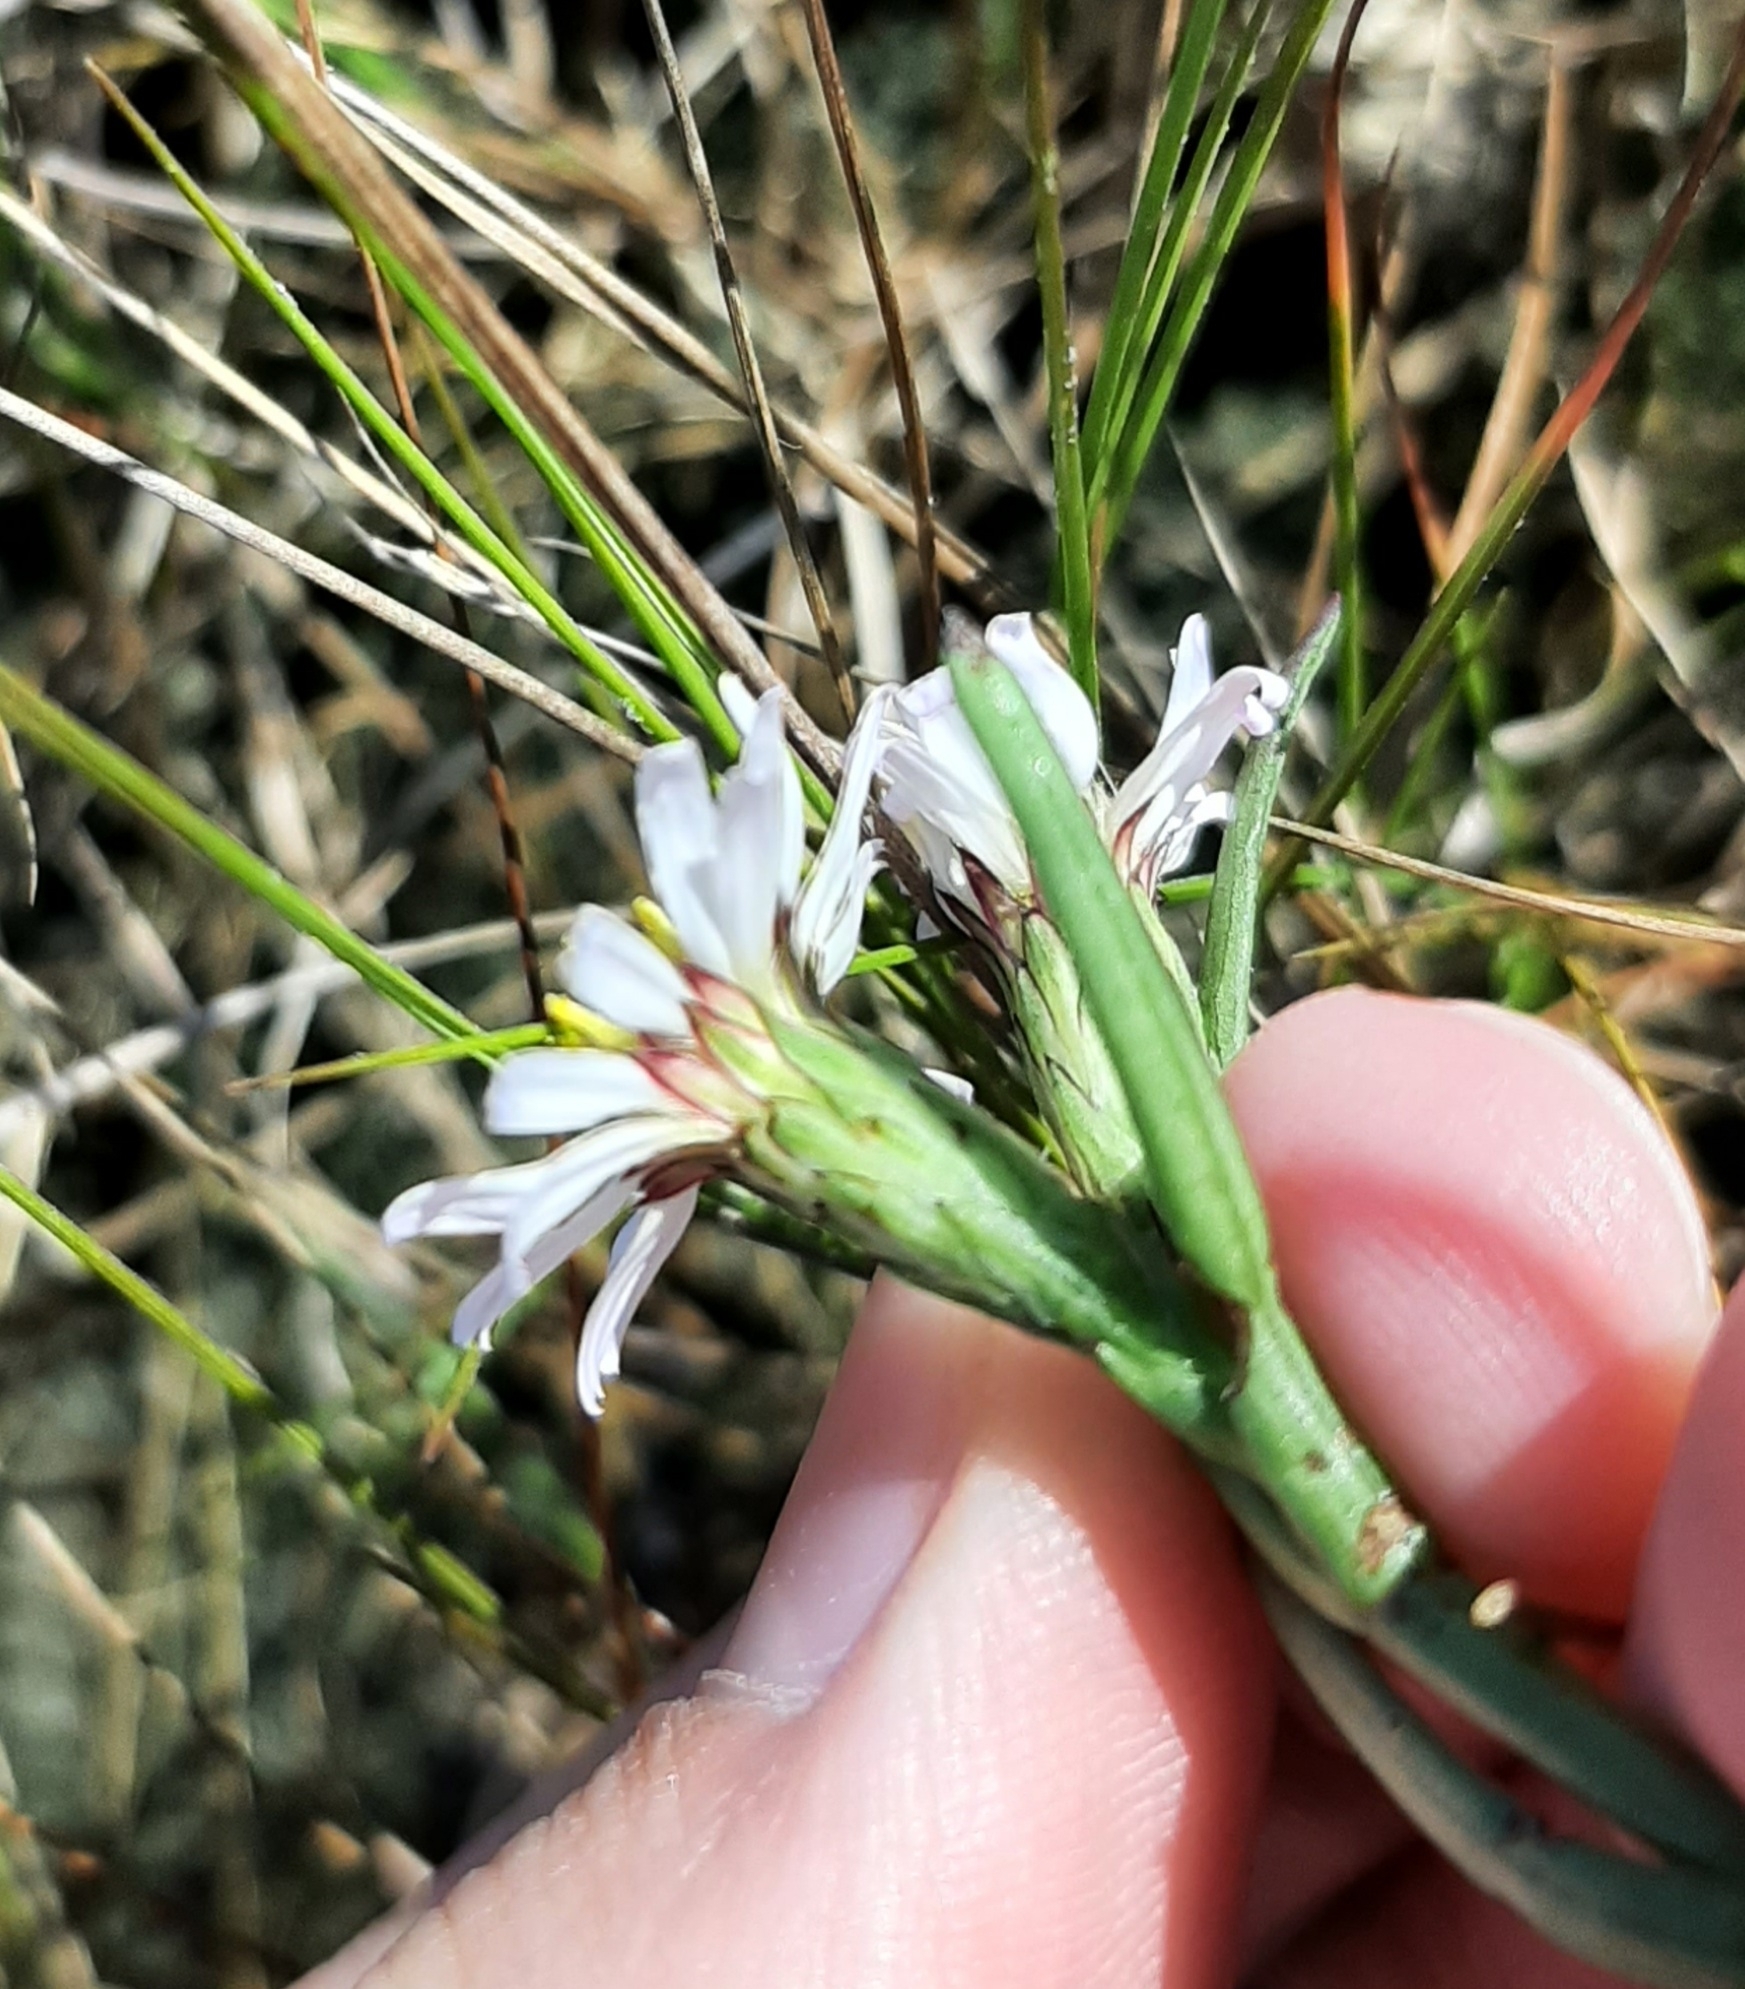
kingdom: Plantae
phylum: Tracheophyta
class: Magnoliopsida
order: Asterales
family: Asteraceae
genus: Symphyotrichum
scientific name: Symphyotrichum tenuifolium
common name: Perennial salt-marsh aster
